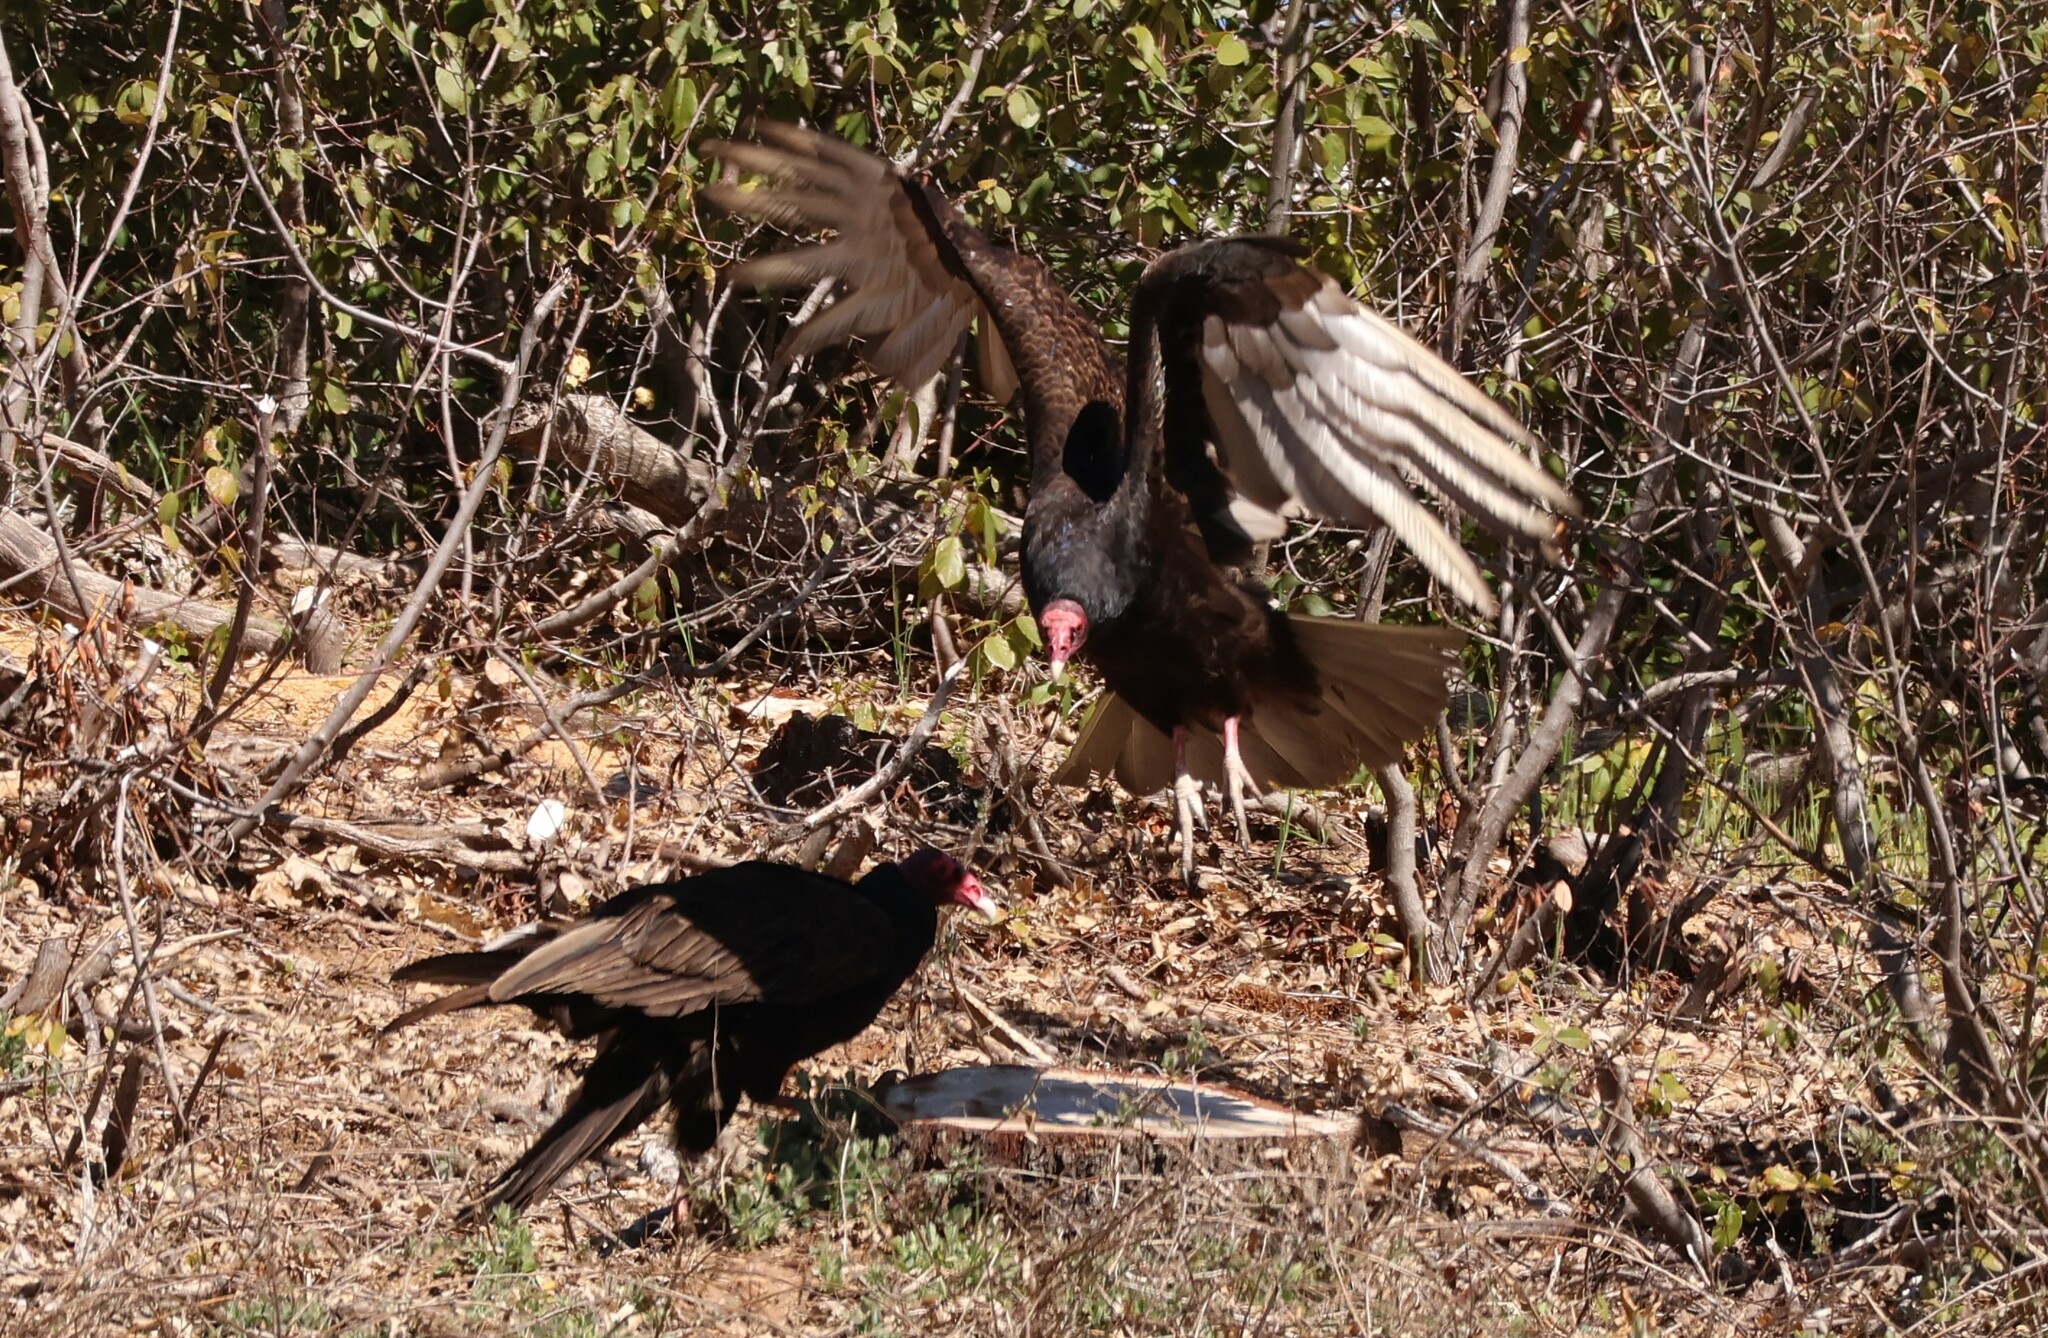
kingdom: Animalia
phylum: Chordata
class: Aves
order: Accipitriformes
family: Cathartidae
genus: Cathartes
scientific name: Cathartes aura
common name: Turkey vulture
